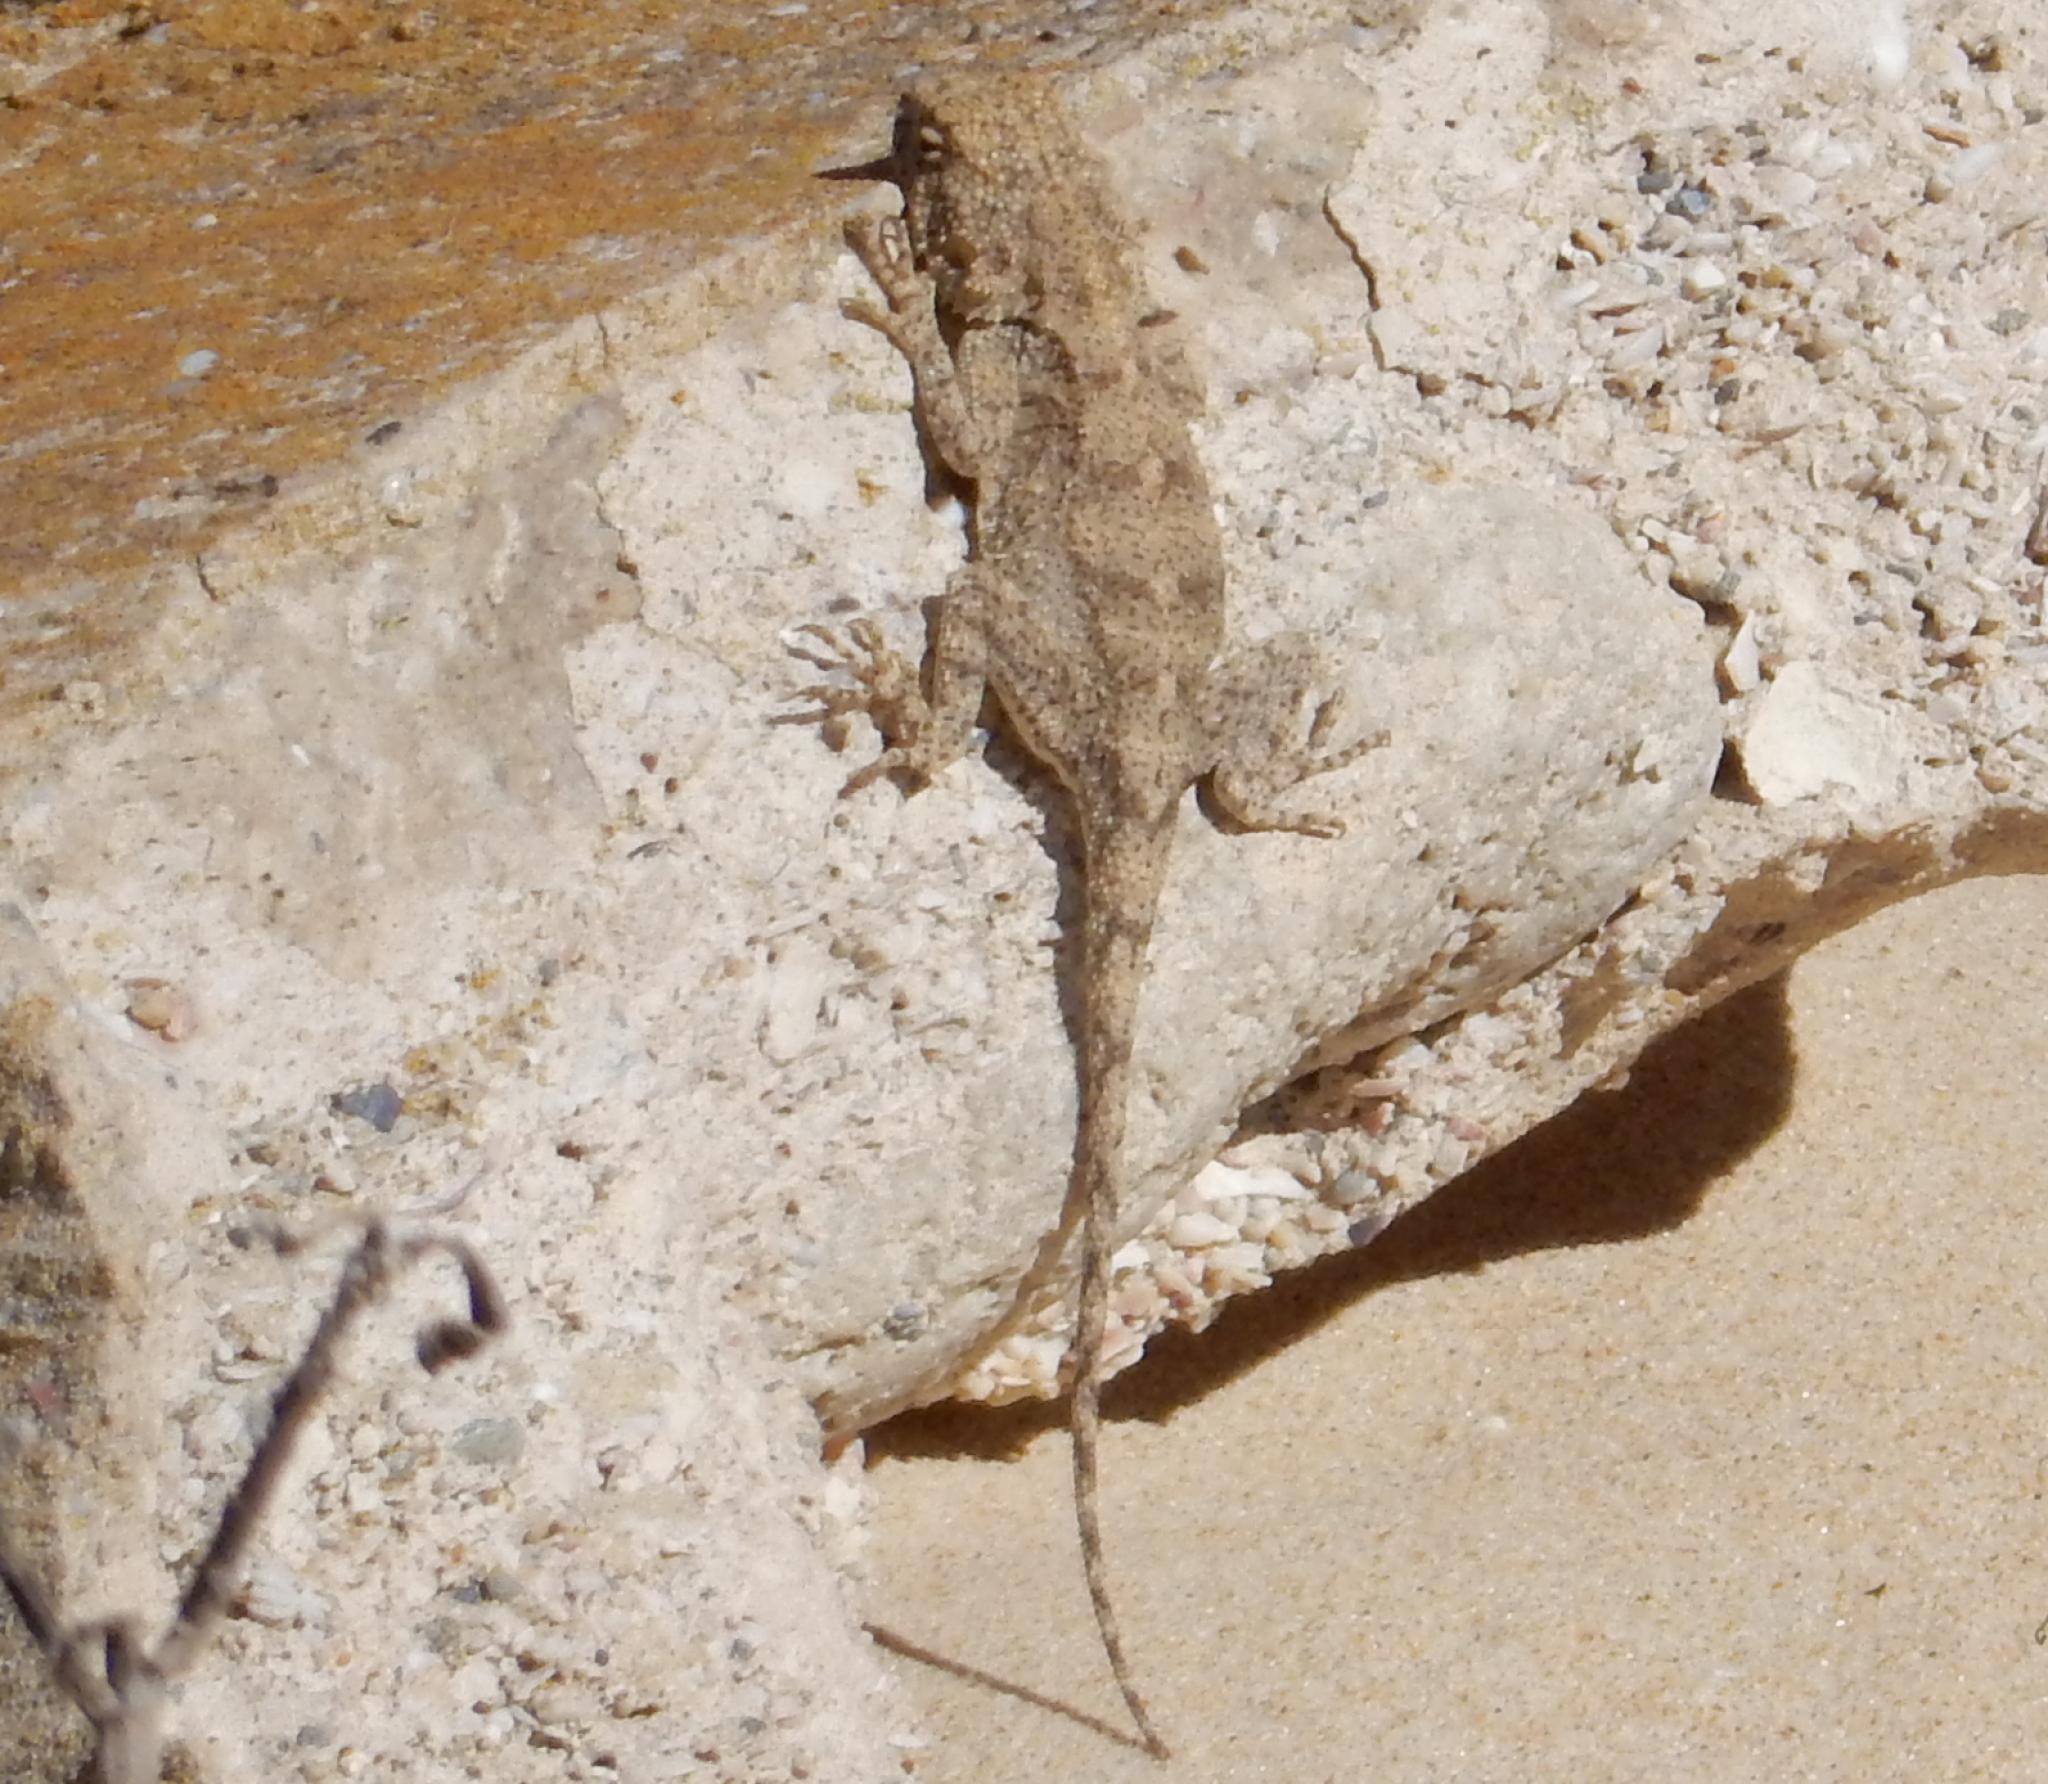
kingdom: Animalia
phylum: Chordata
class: Squamata
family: Agamidae
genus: Agama
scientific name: Agama atra
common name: Southern african rock agama
